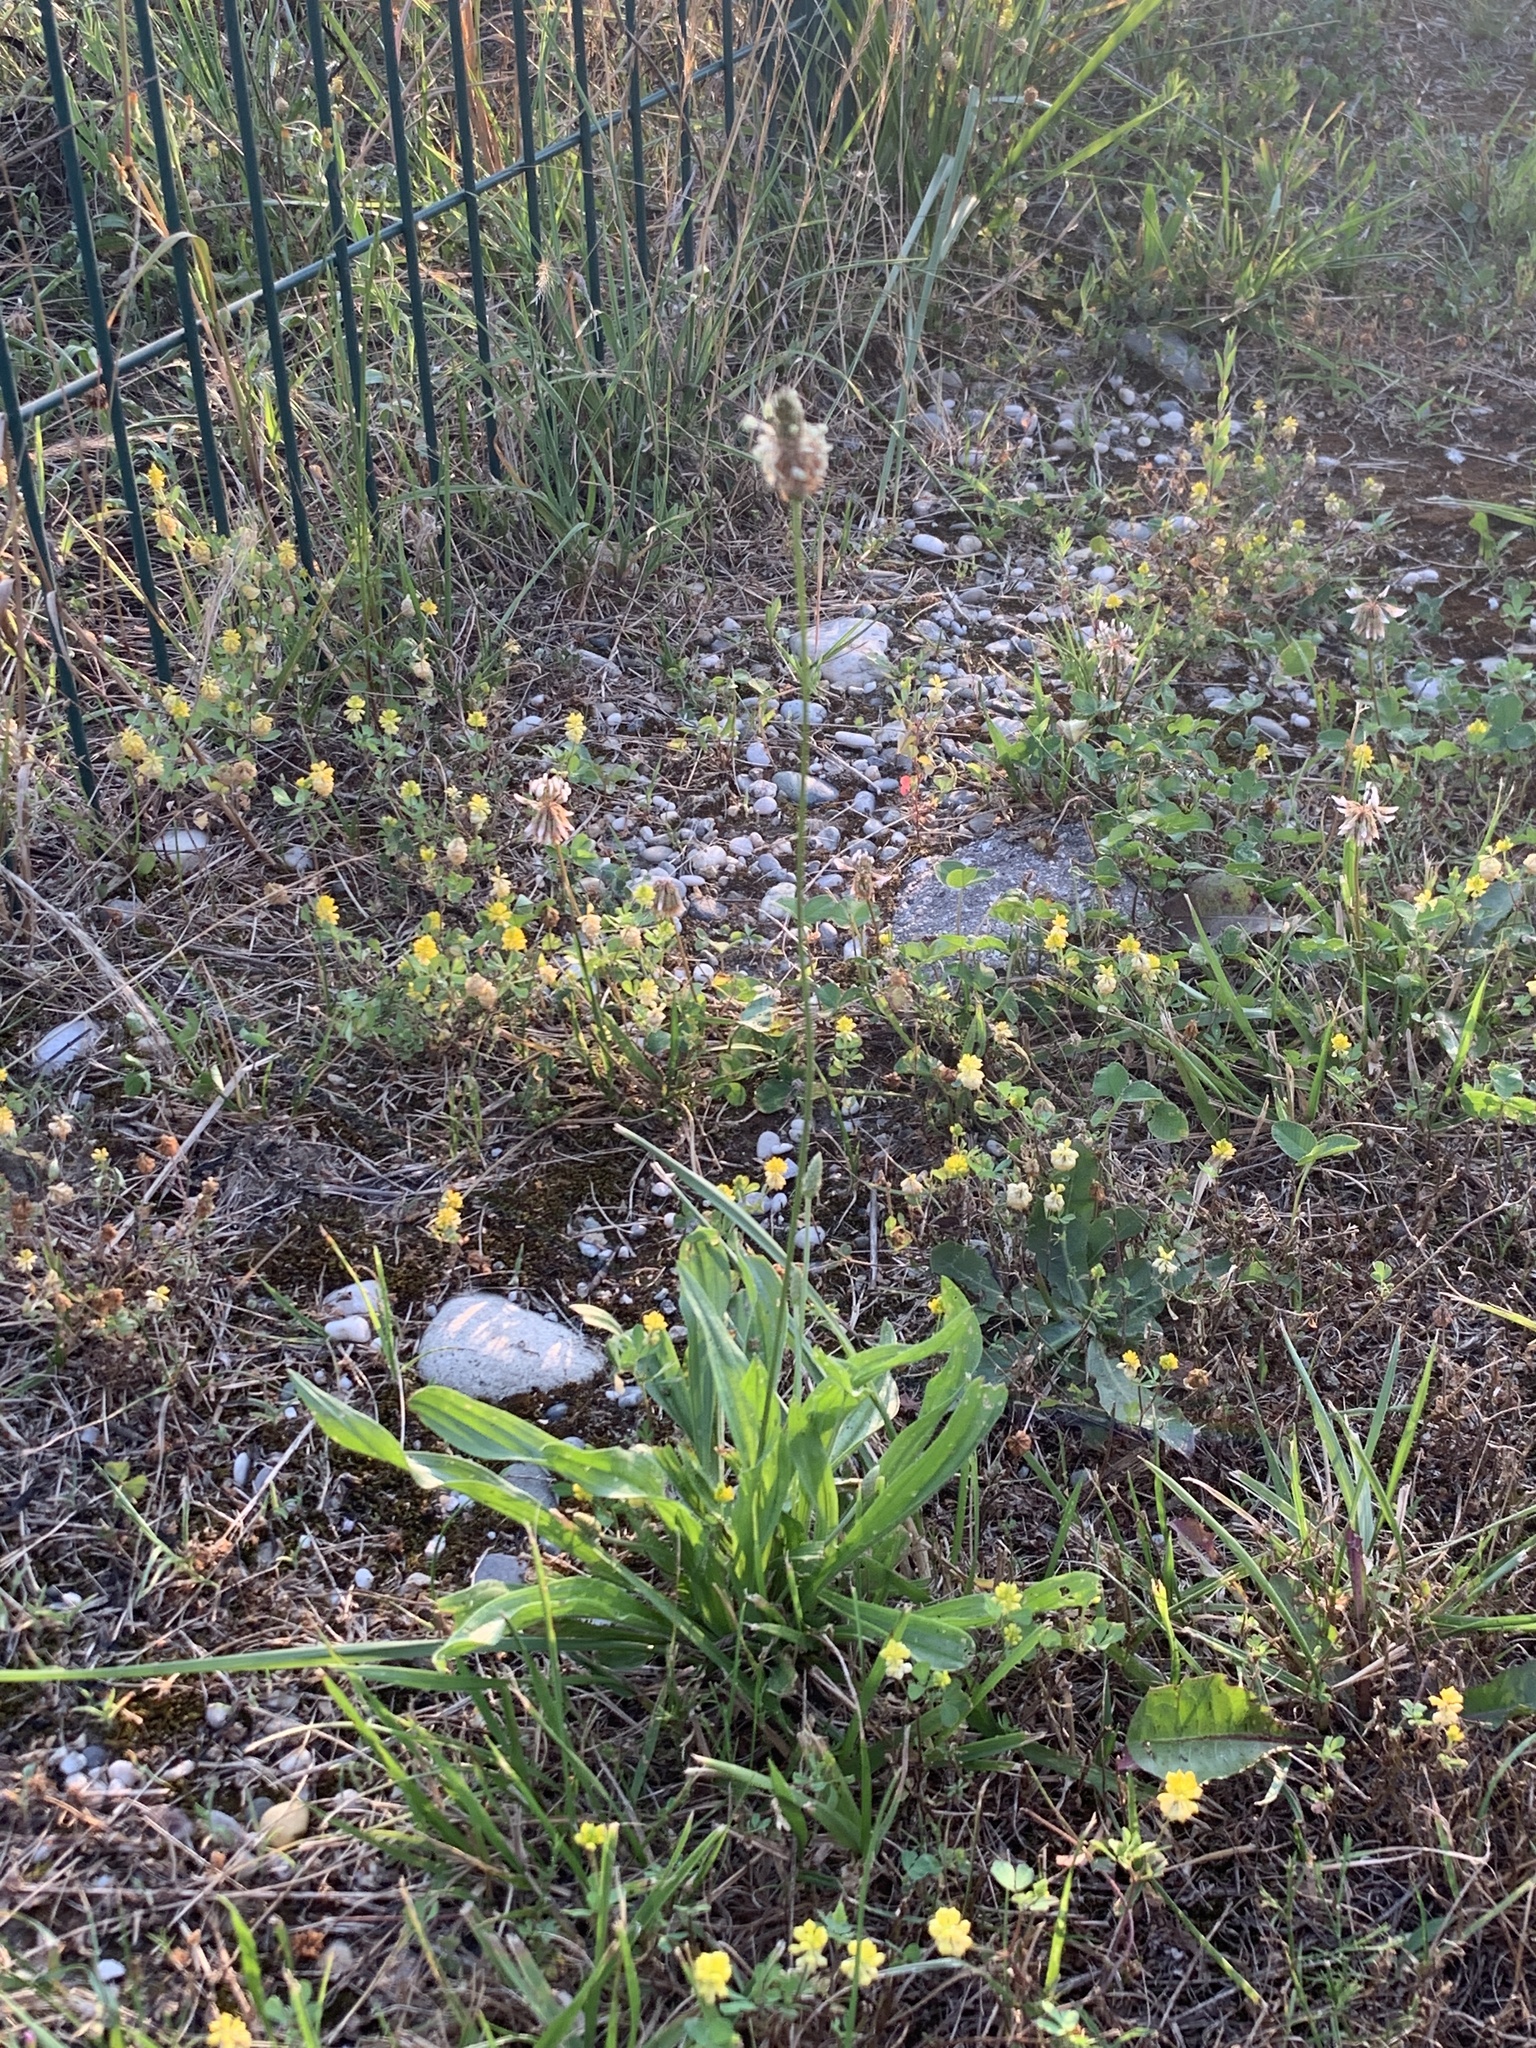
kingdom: Plantae
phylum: Tracheophyta
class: Magnoliopsida
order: Lamiales
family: Plantaginaceae
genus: Plantago
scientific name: Plantago lanceolata
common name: Ribwort plantain
